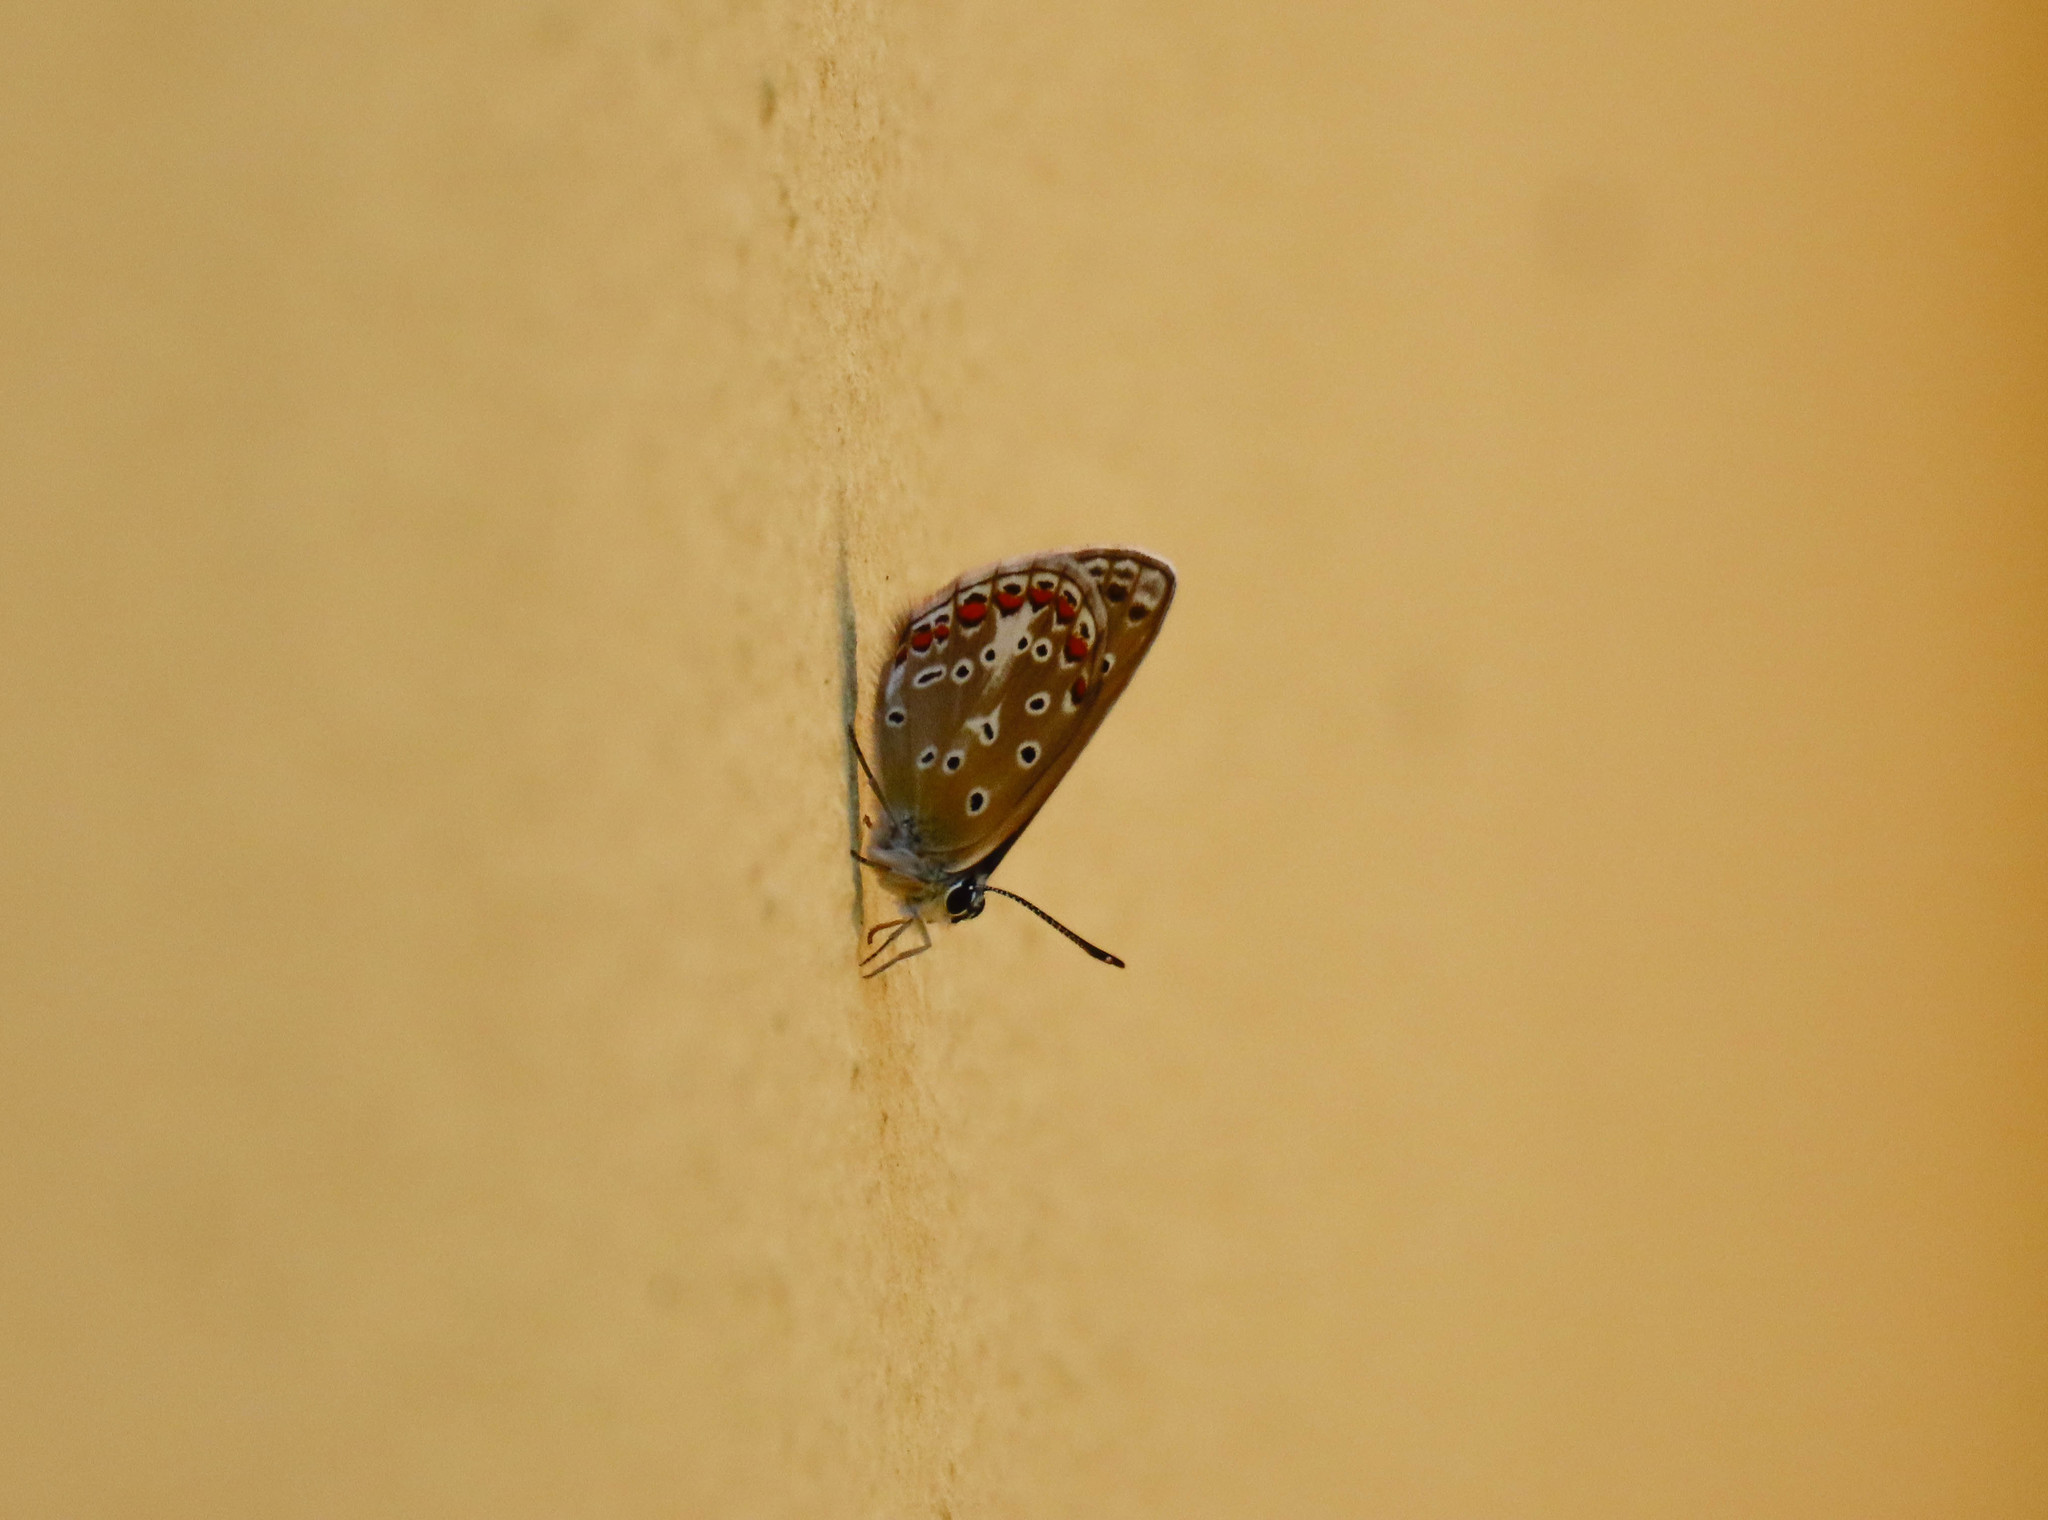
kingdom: Animalia
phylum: Arthropoda
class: Insecta
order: Lepidoptera
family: Lycaenidae
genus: Polyommatus
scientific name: Polyommatus celina
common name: Austaut's blue
